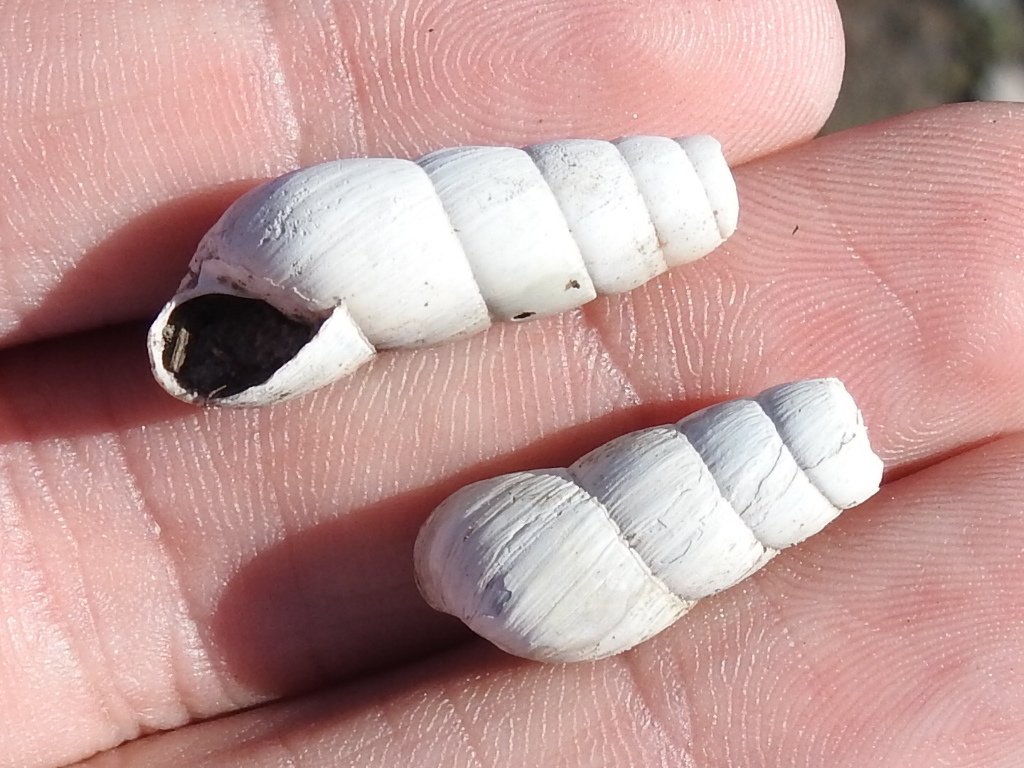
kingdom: Animalia
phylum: Mollusca
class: Gastropoda
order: Stylommatophora
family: Achatinidae
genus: Rumina
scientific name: Rumina decollata
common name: Decollate snail
